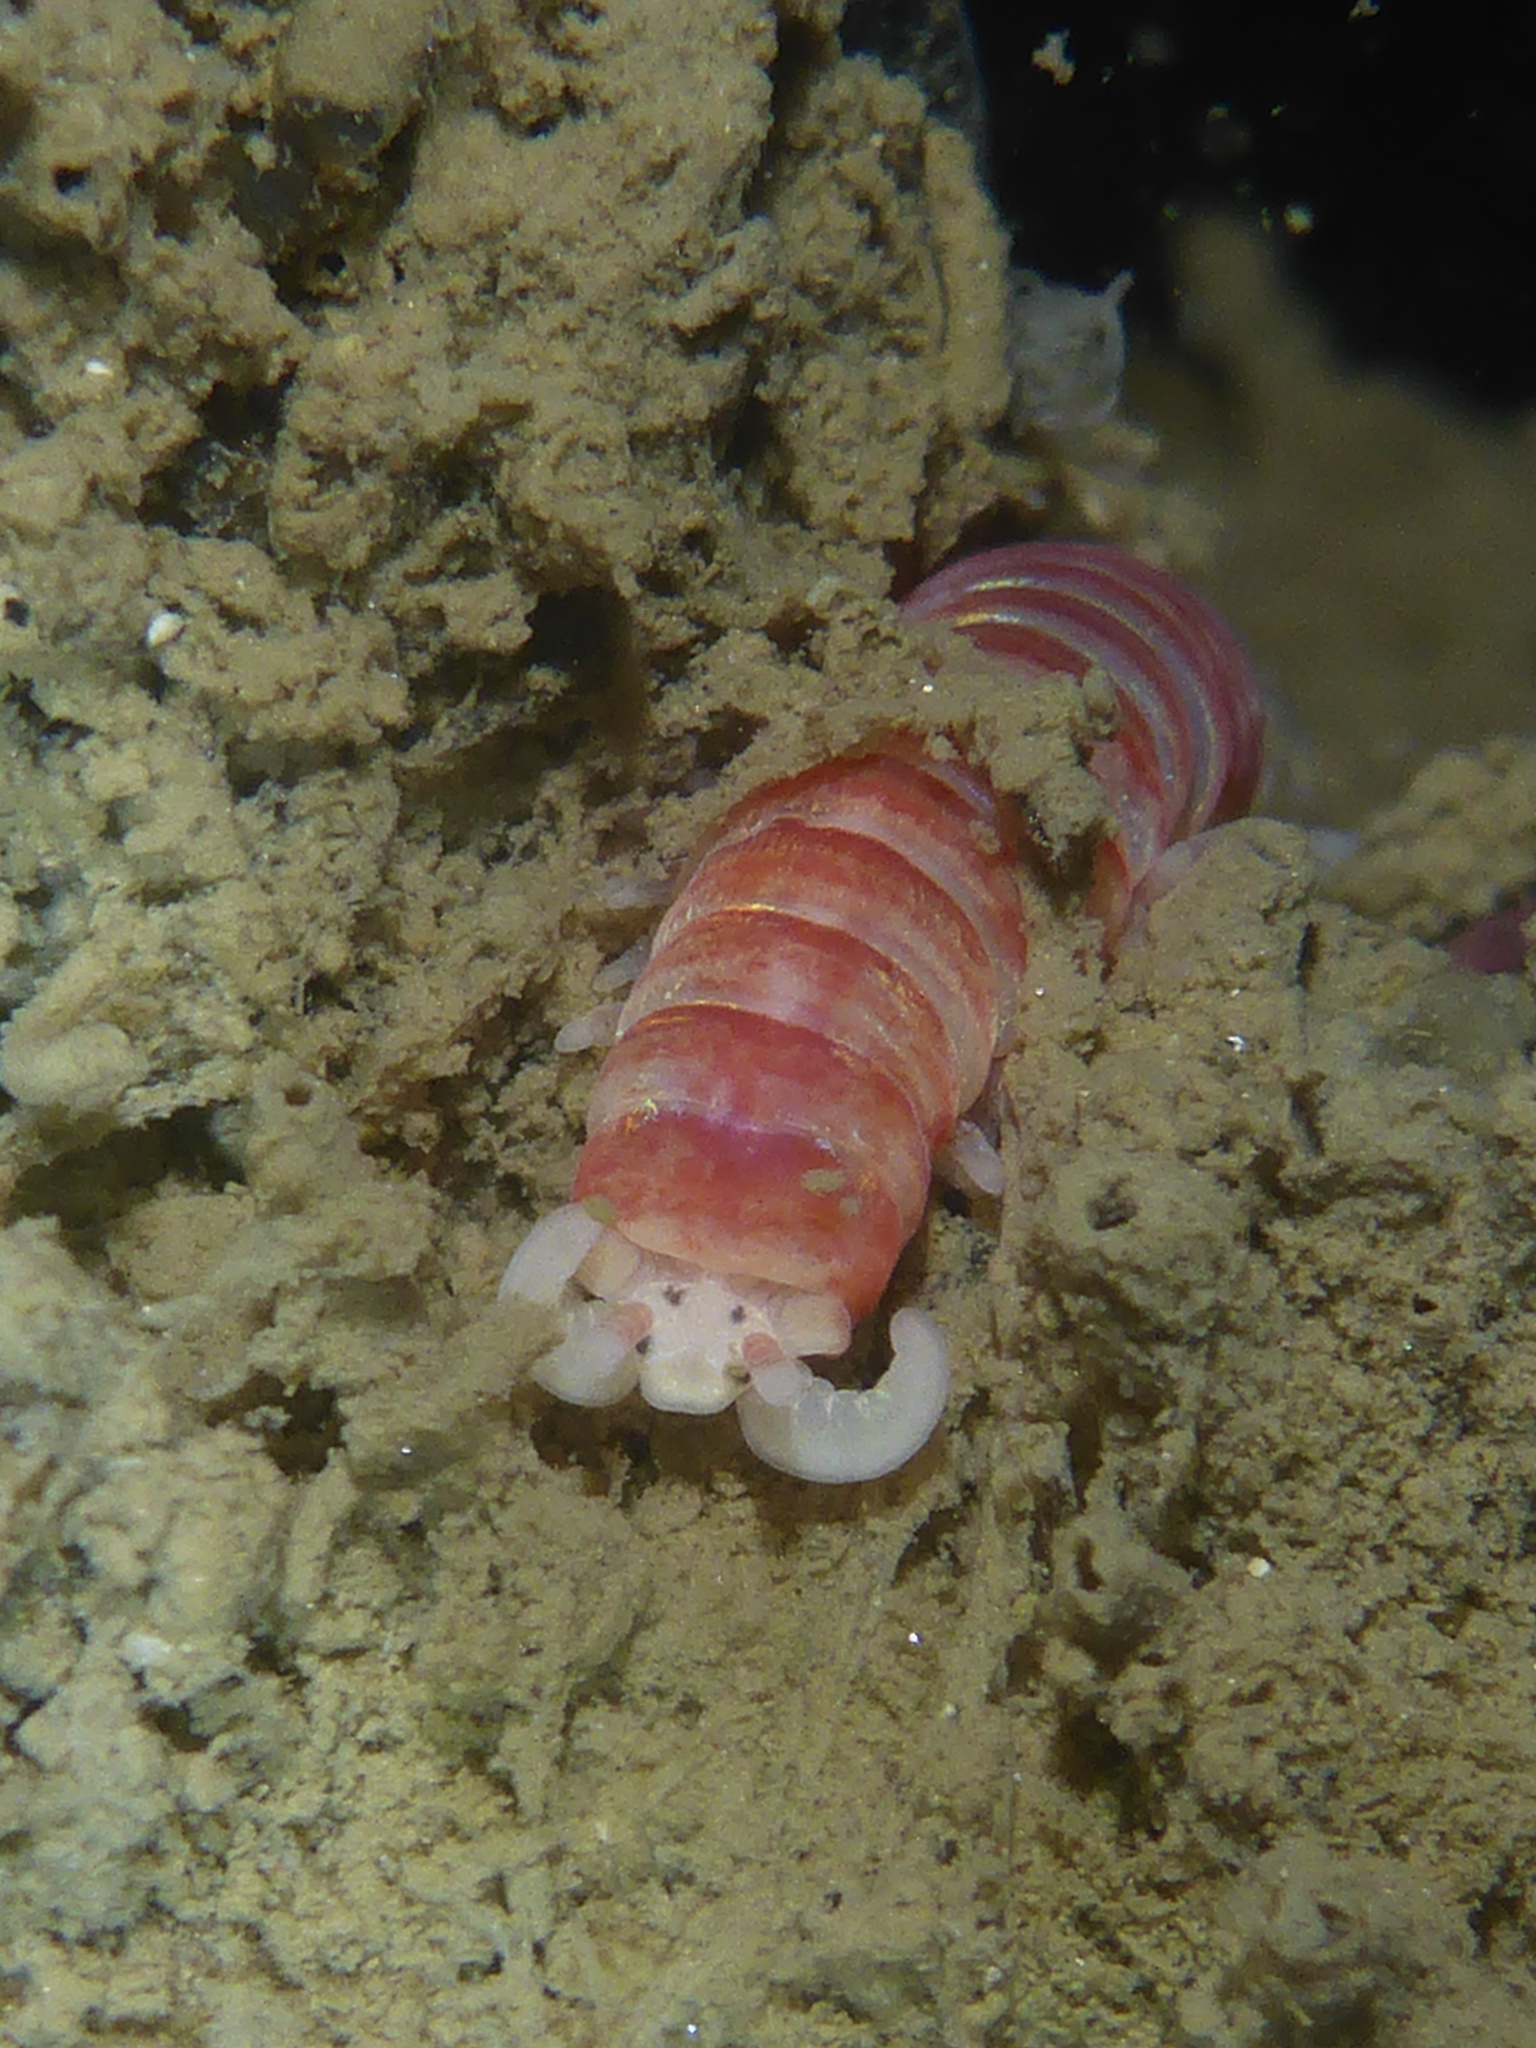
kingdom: Animalia
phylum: Annelida
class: Polychaeta
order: Eunicida
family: Dorvilleidae
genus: Dorvillea
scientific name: Dorvillea moniloceras
